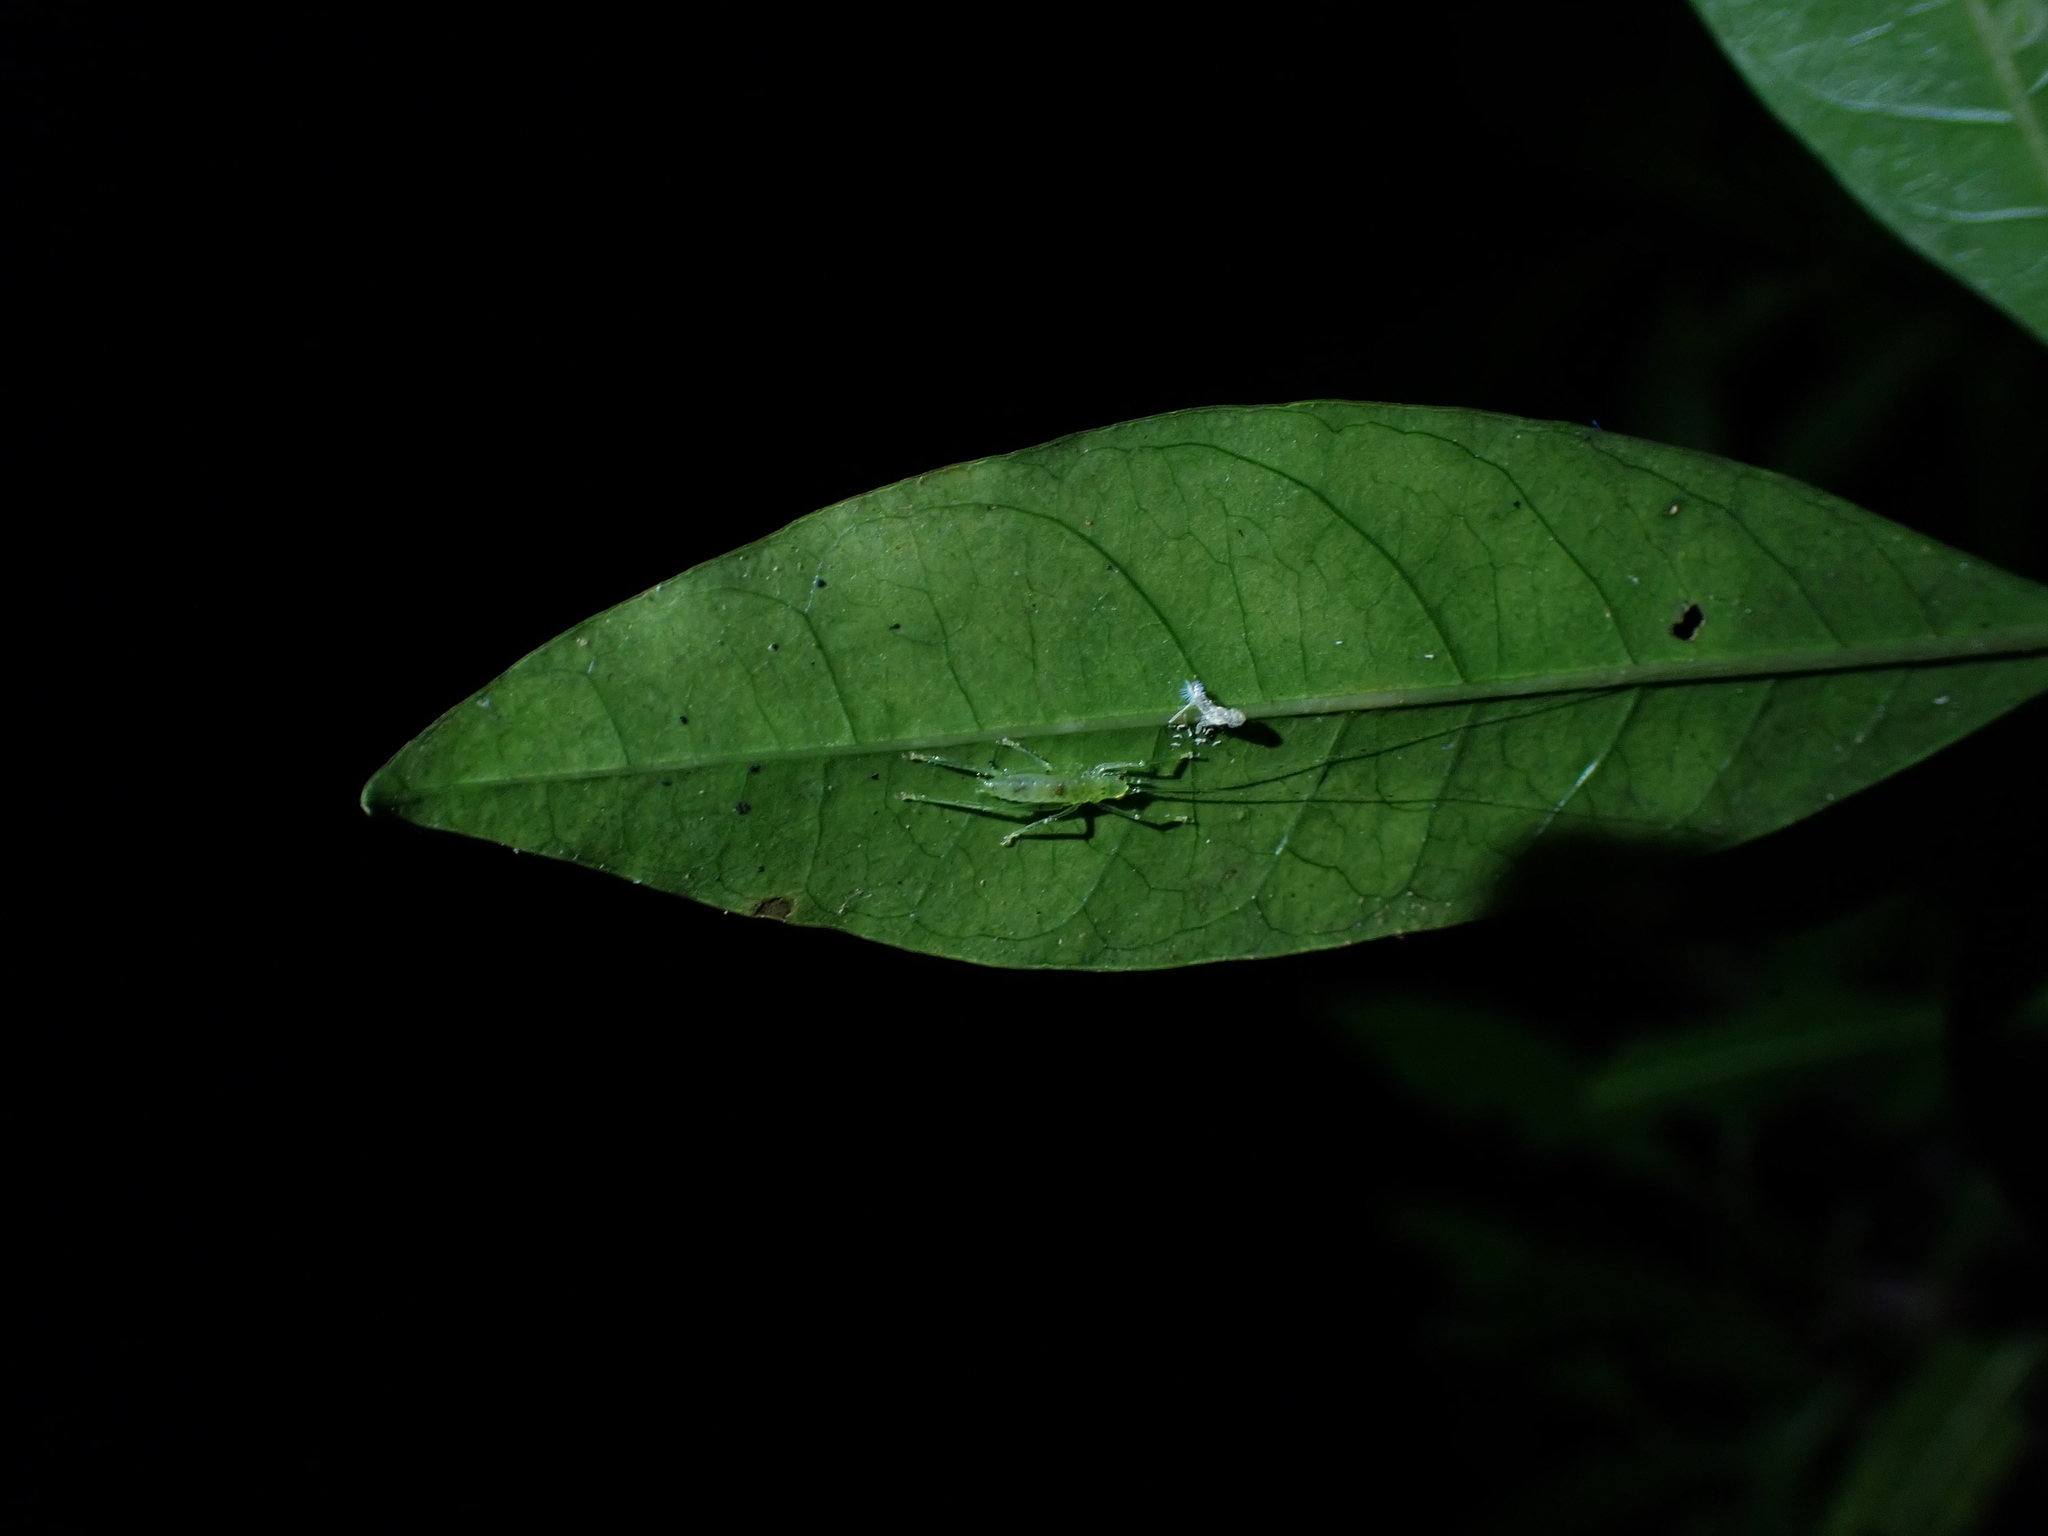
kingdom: Animalia
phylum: Arthropoda
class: Insecta
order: Orthoptera
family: Tettigoniidae
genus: Miniagraecia
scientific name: Miniagraecia milyali
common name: Tiny forest green katydid
